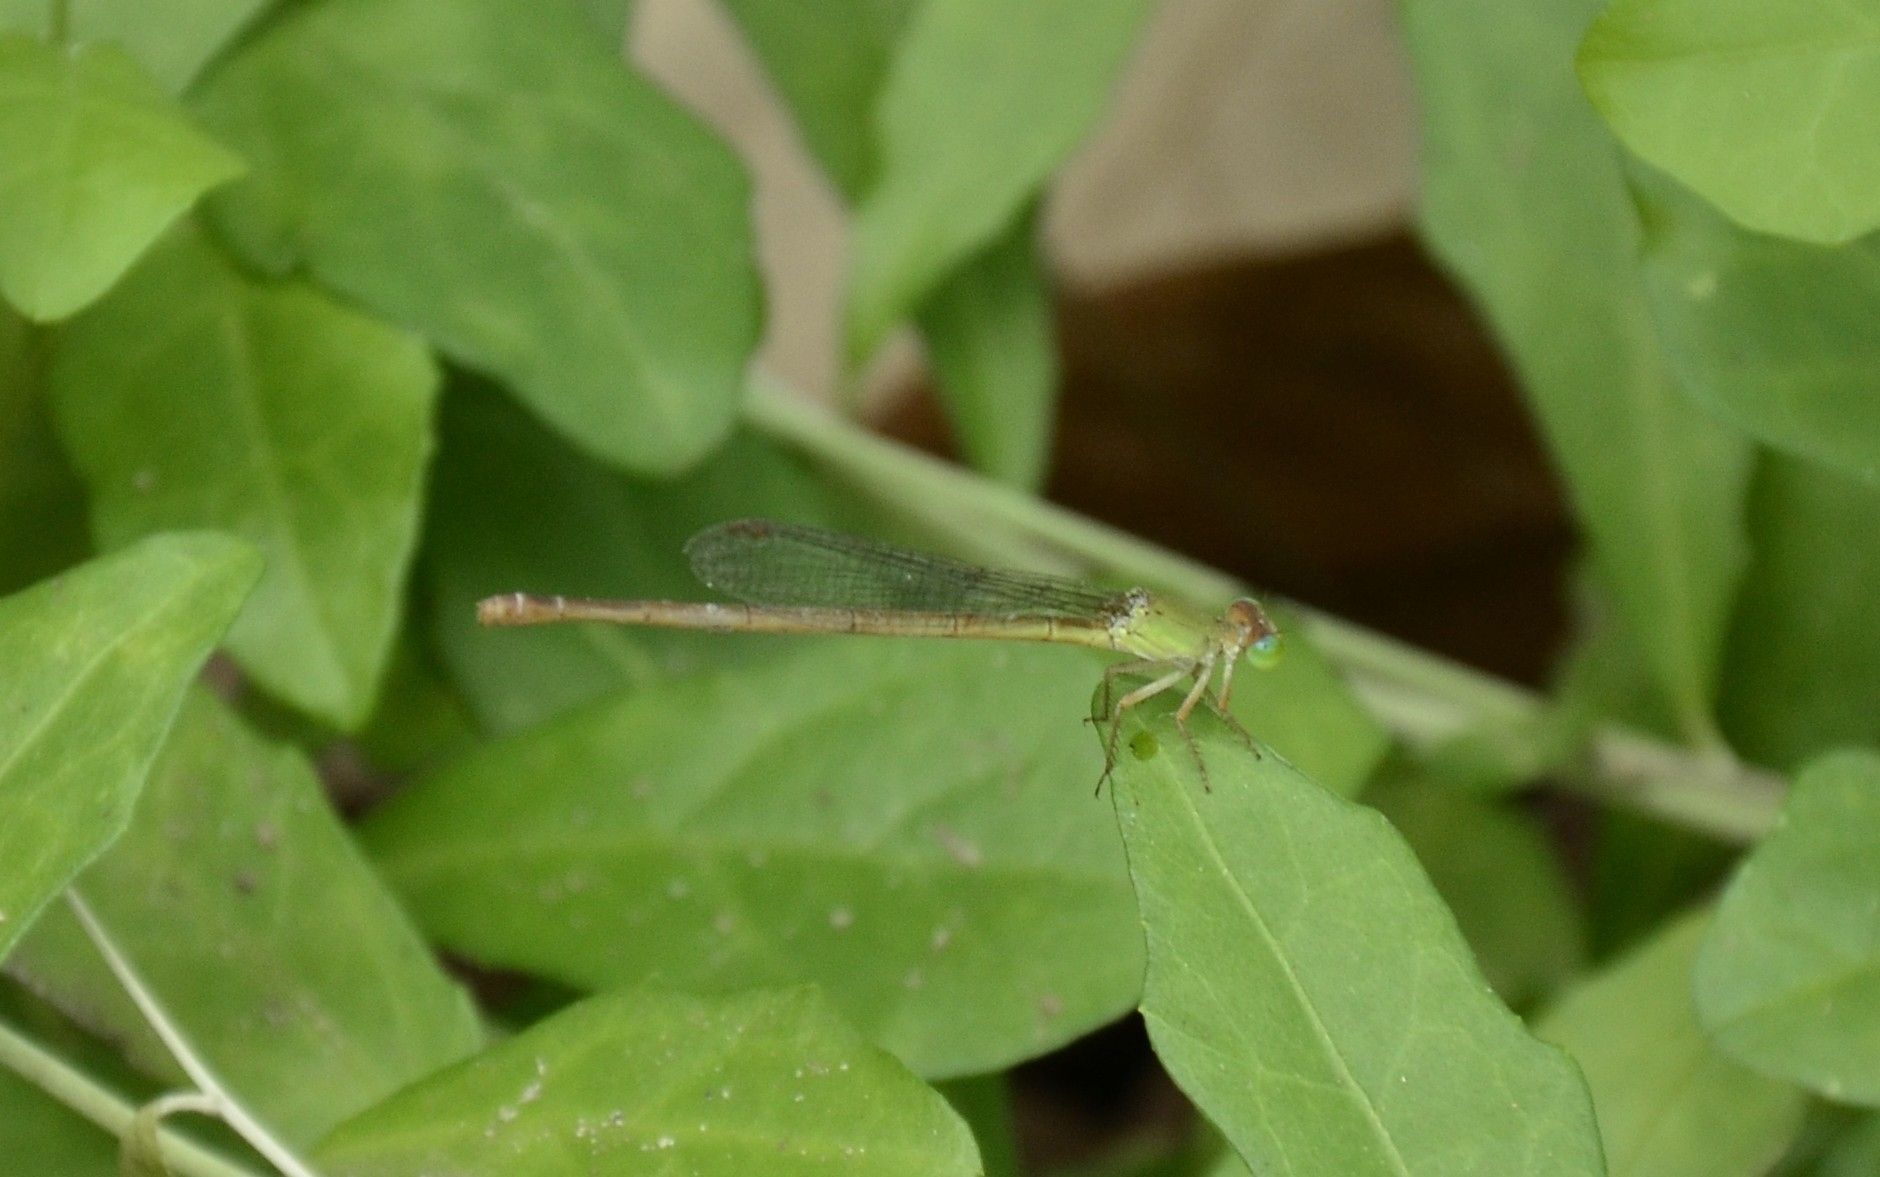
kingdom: Animalia
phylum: Arthropoda
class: Insecta
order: Odonata
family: Coenagrionidae
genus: Ceriagrion
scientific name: Ceriagrion coromandelianum
